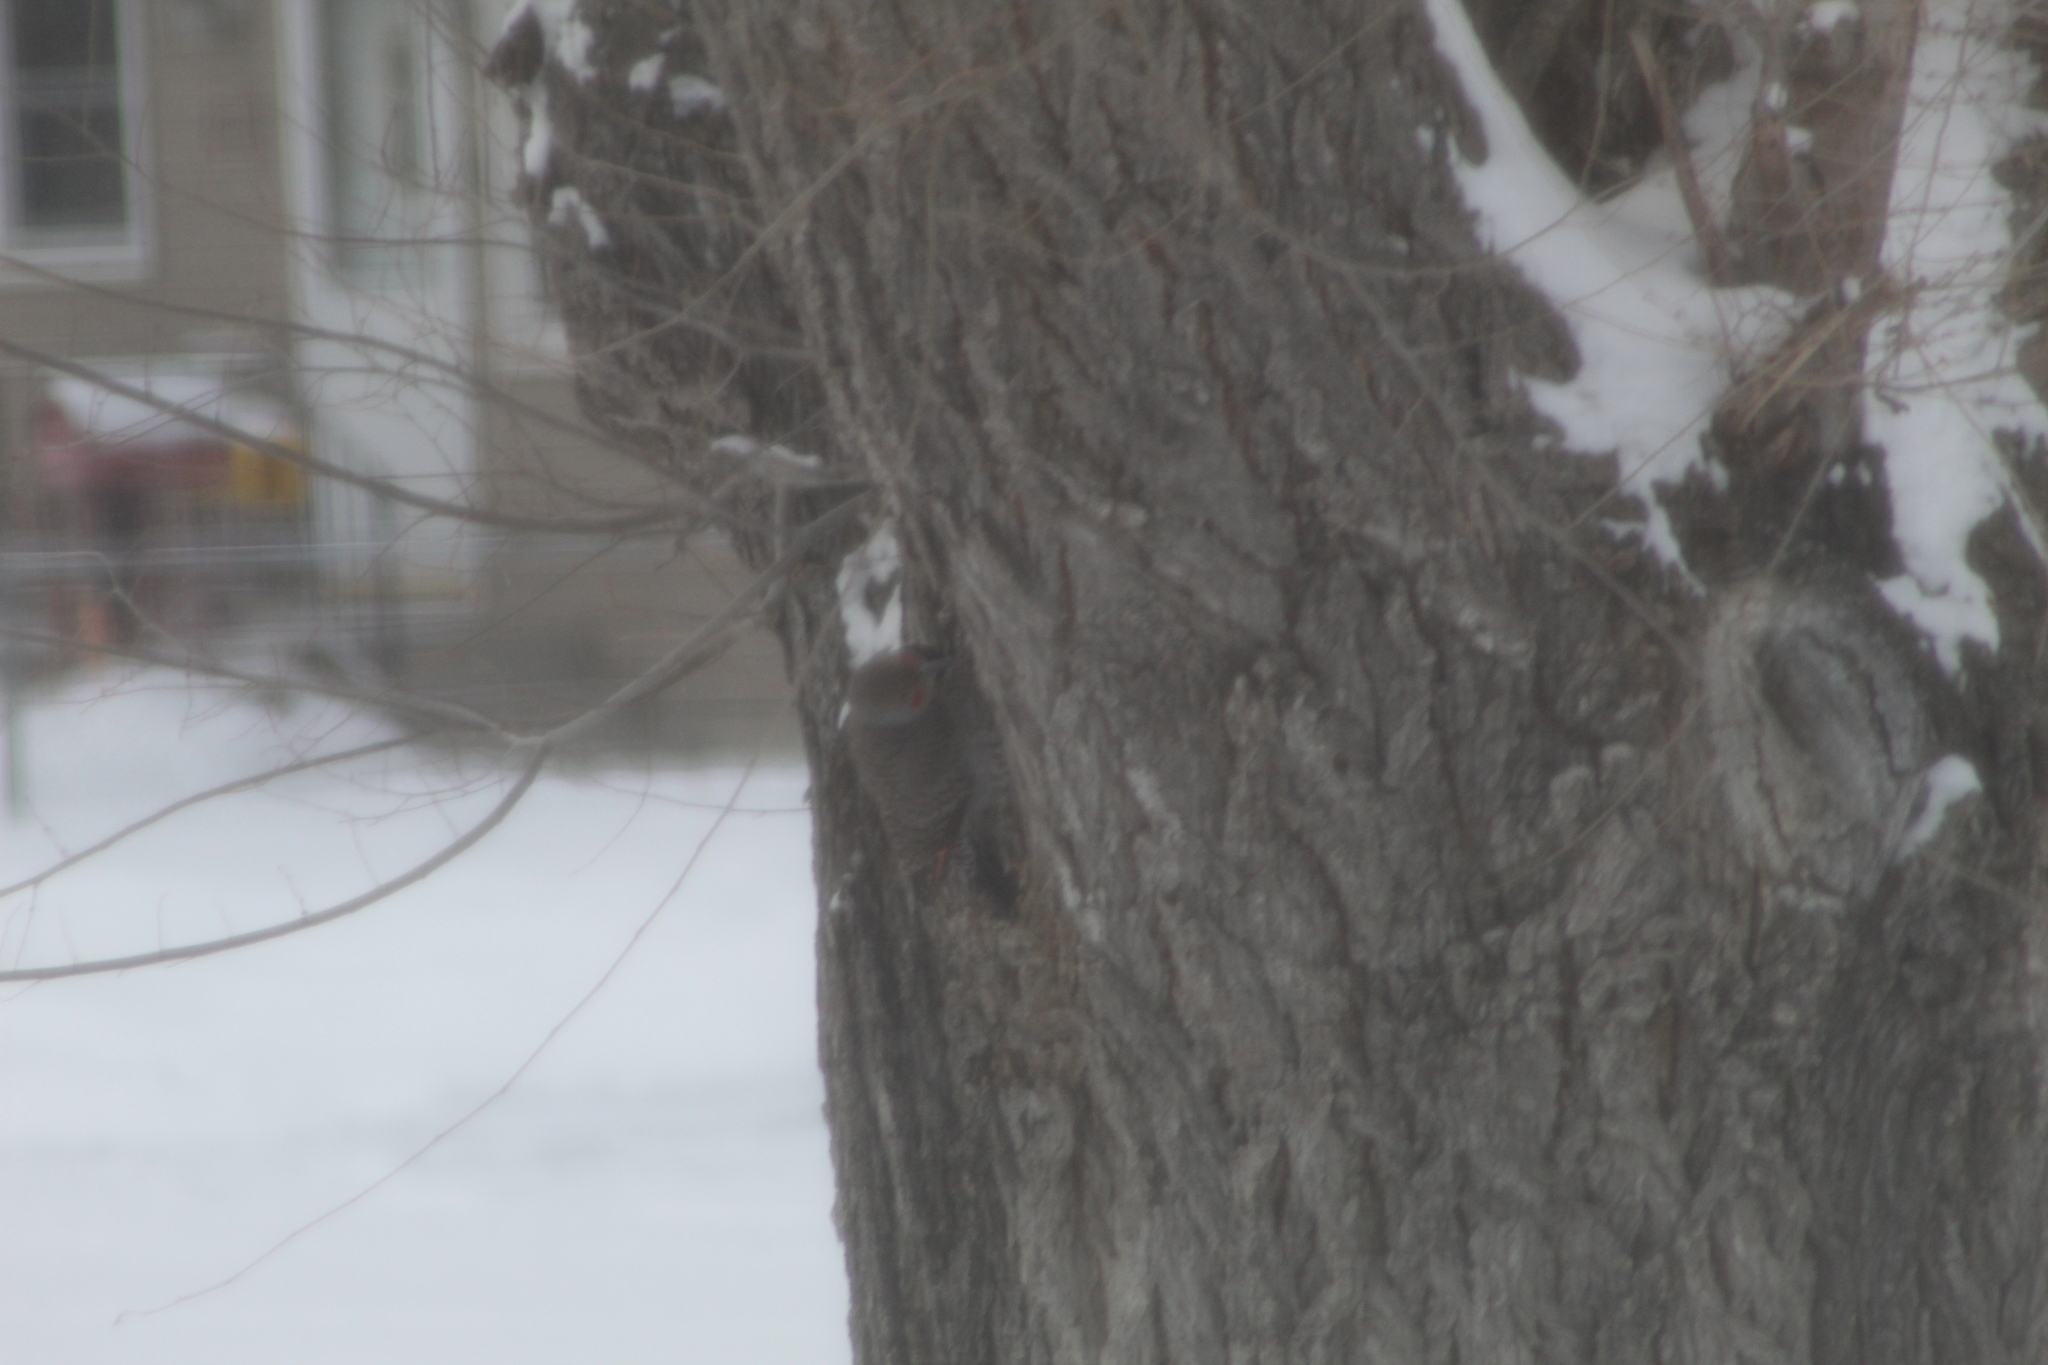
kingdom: Animalia
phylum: Chordata
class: Aves
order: Piciformes
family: Picidae
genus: Colaptes
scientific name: Colaptes auratus
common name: Northern flicker
